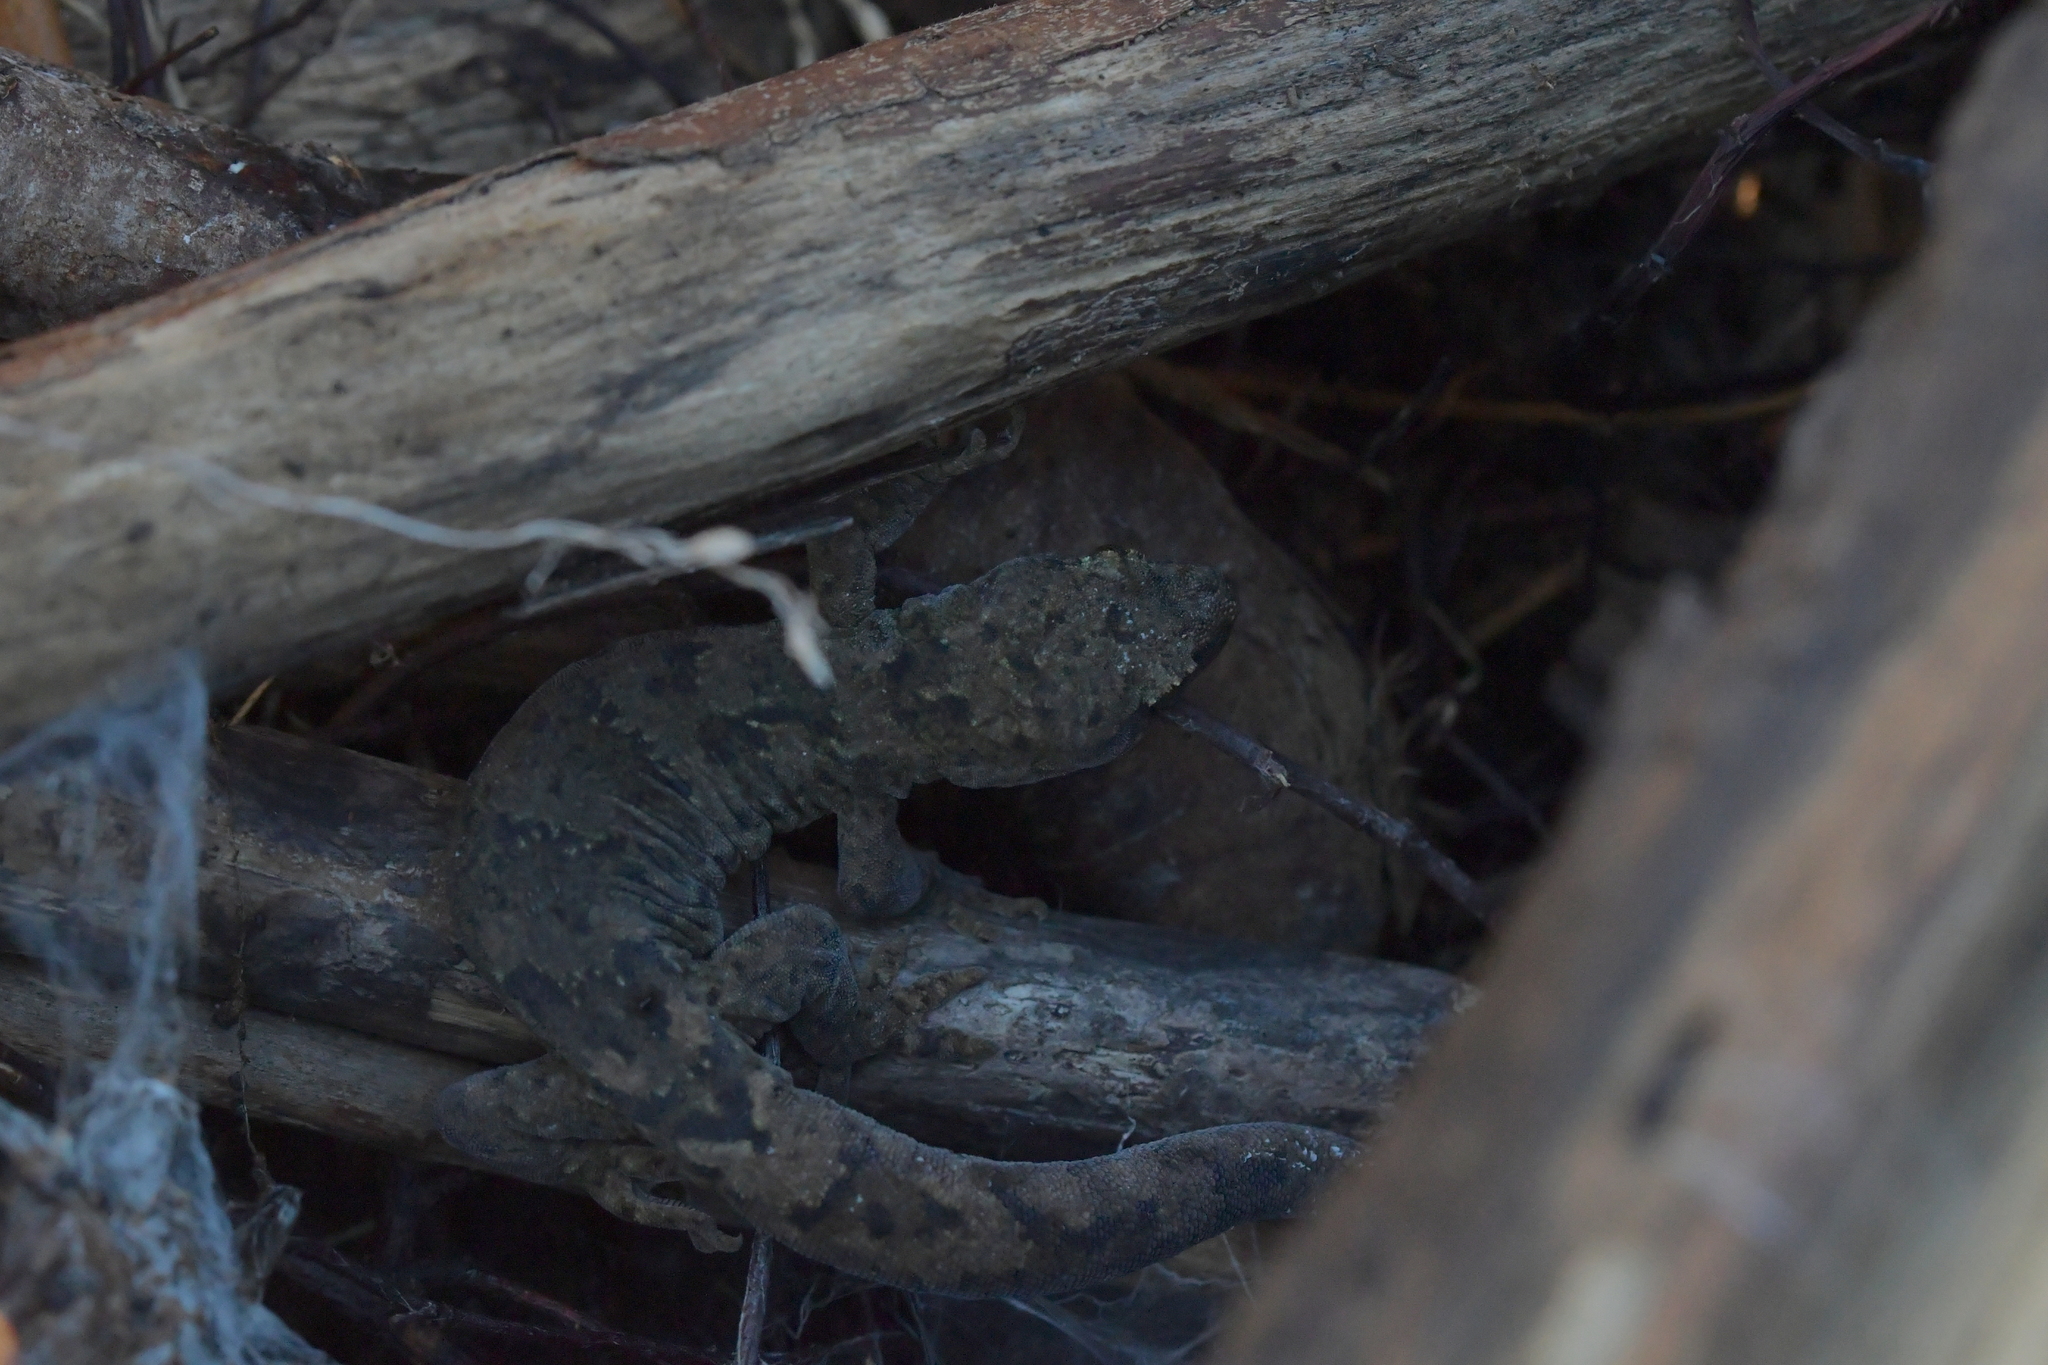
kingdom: Animalia
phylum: Chordata
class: Squamata
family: Diplodactylidae
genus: Woodworthia
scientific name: Woodworthia maculata
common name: Raukawa gecko
